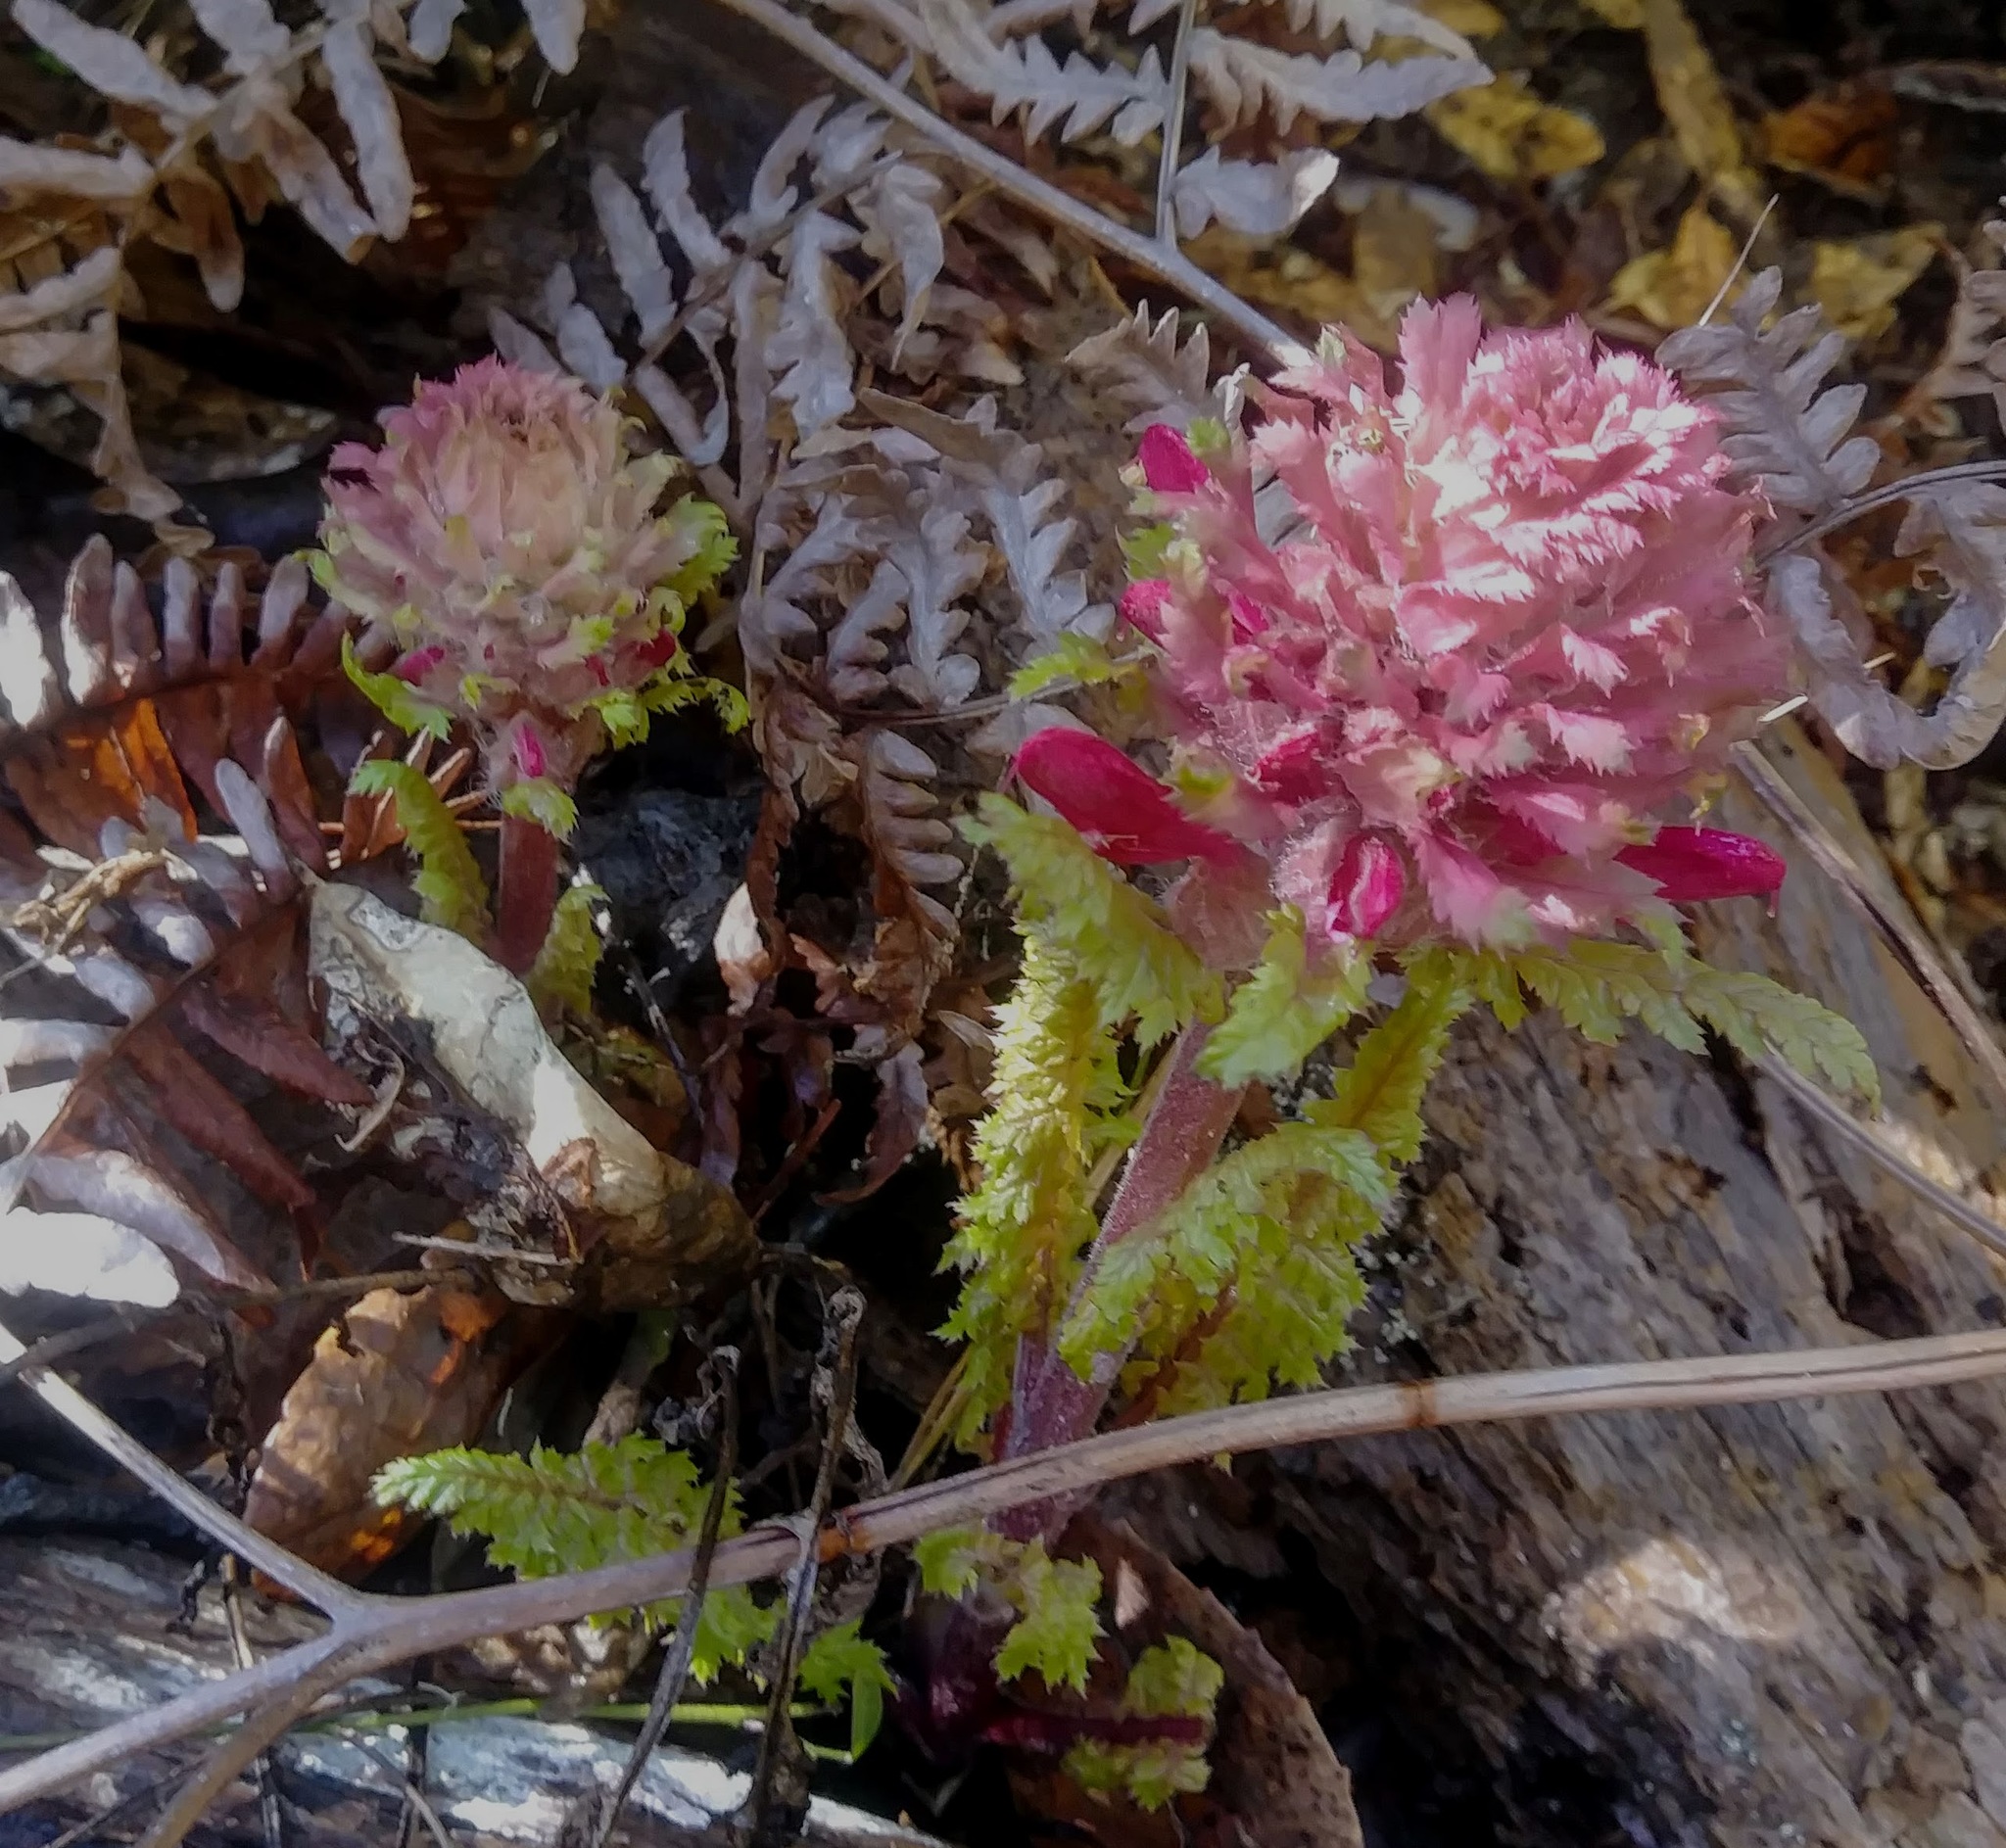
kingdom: Plantae
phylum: Tracheophyta
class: Magnoliopsida
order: Lamiales
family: Orobanchaceae
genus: Pedicularis
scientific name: Pedicularis densiflora
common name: Indian warrior
